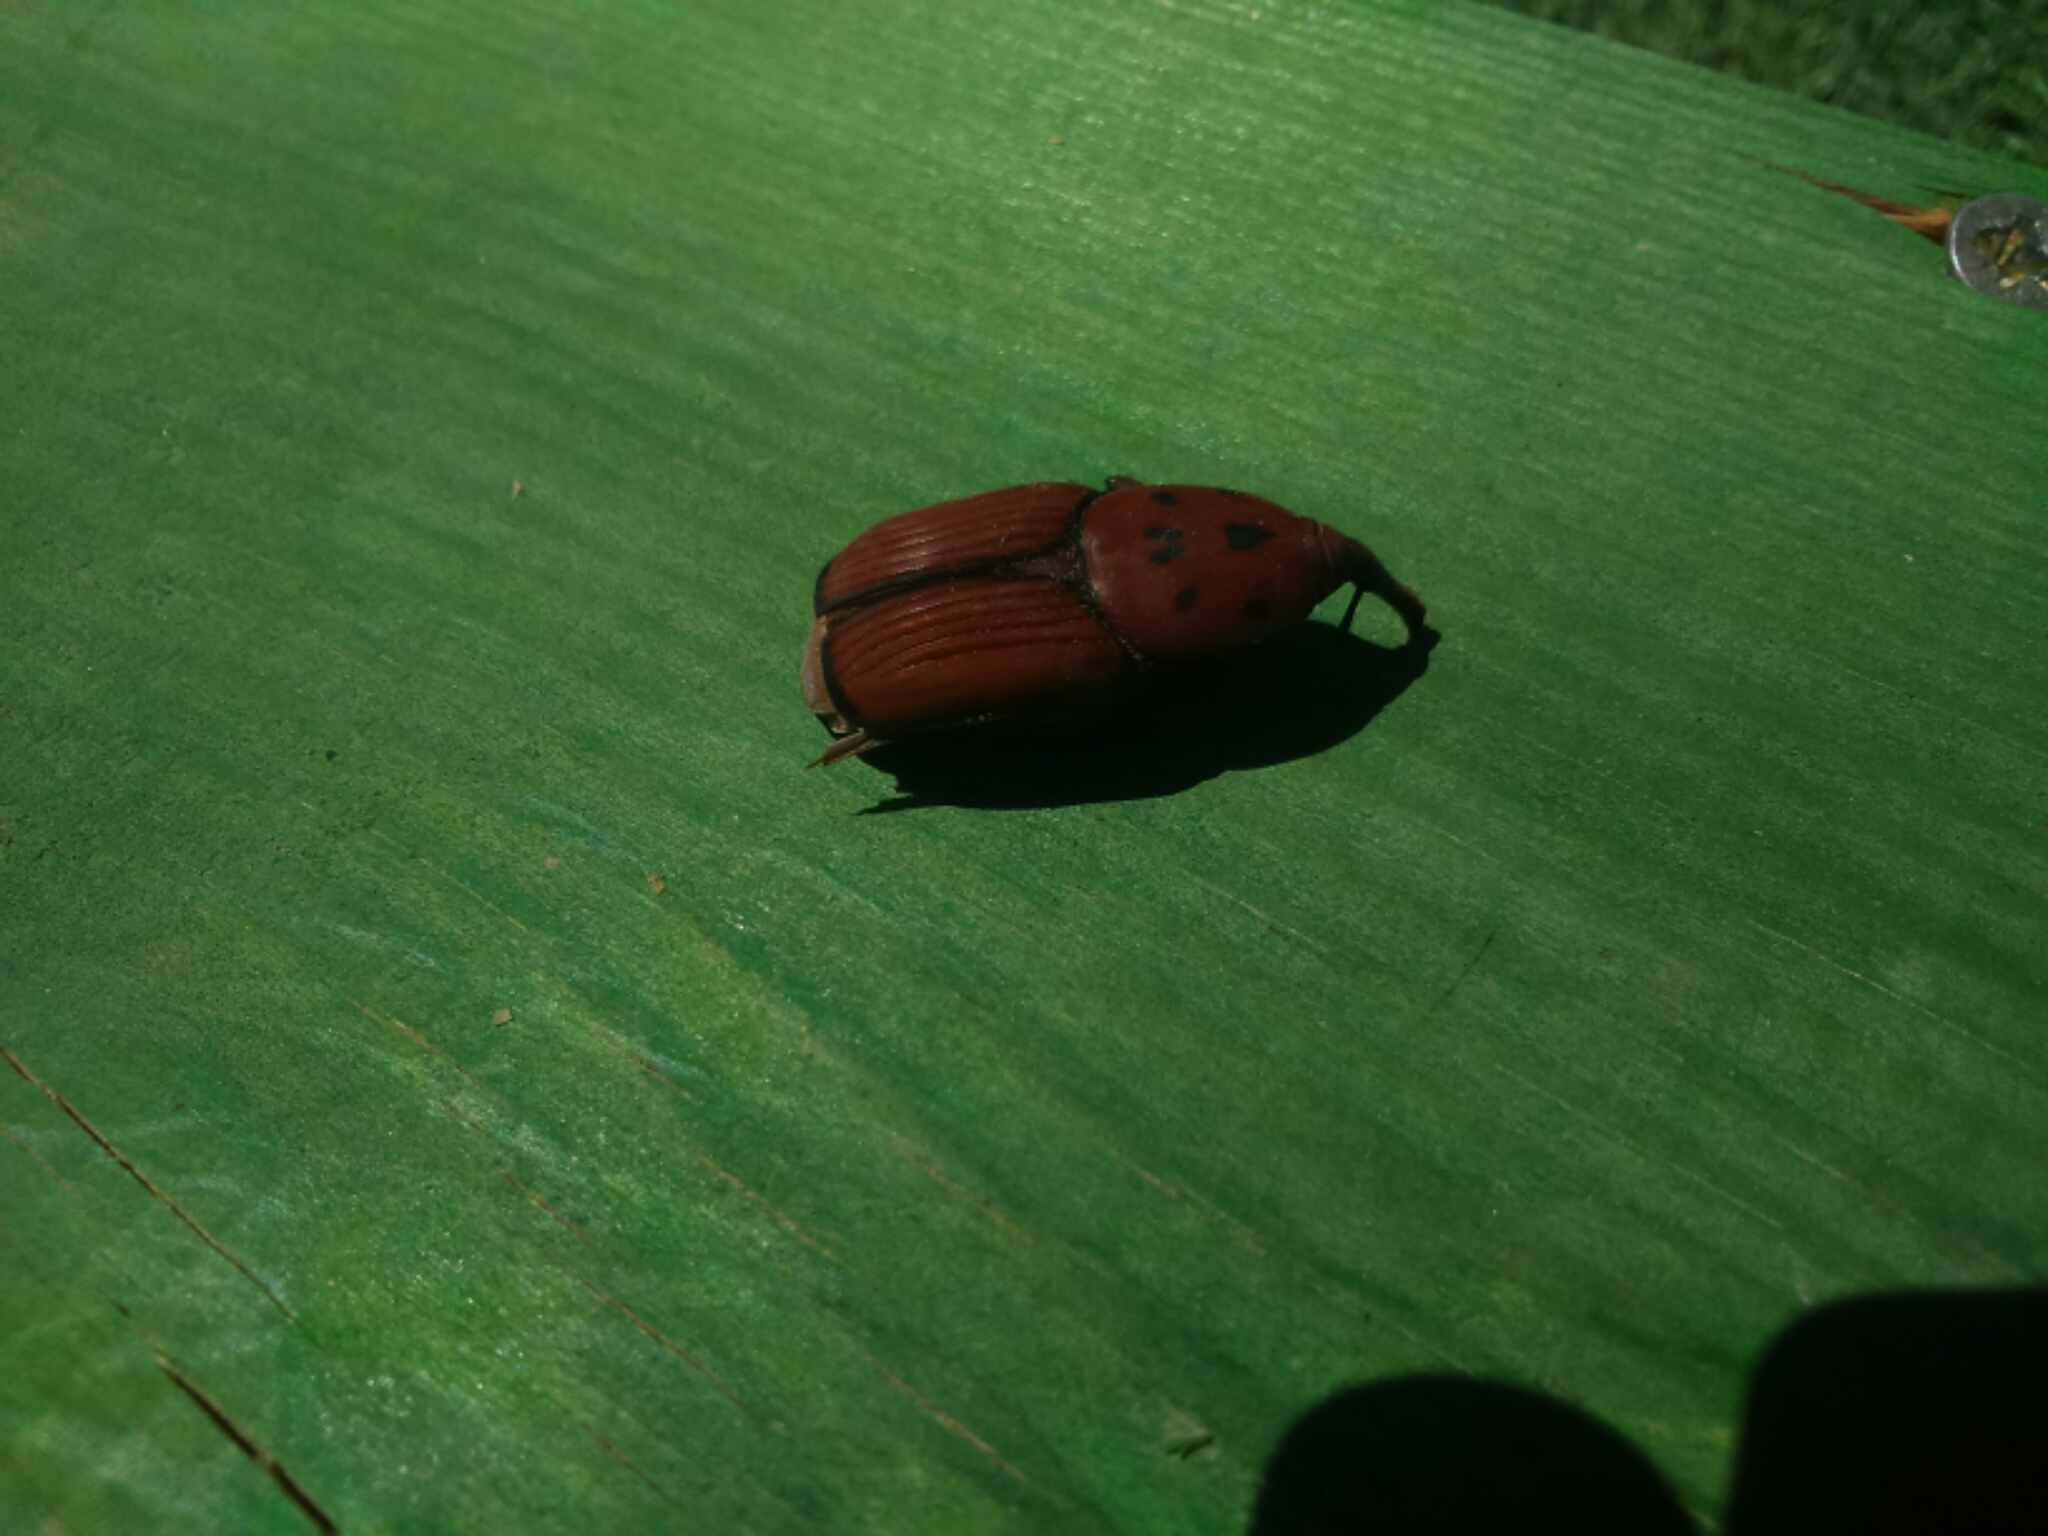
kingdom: Animalia
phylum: Arthropoda
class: Insecta
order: Coleoptera
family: Dryophthoridae
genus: Rhynchophorus
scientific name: Rhynchophorus ferrugineus
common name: Red palm weevil
